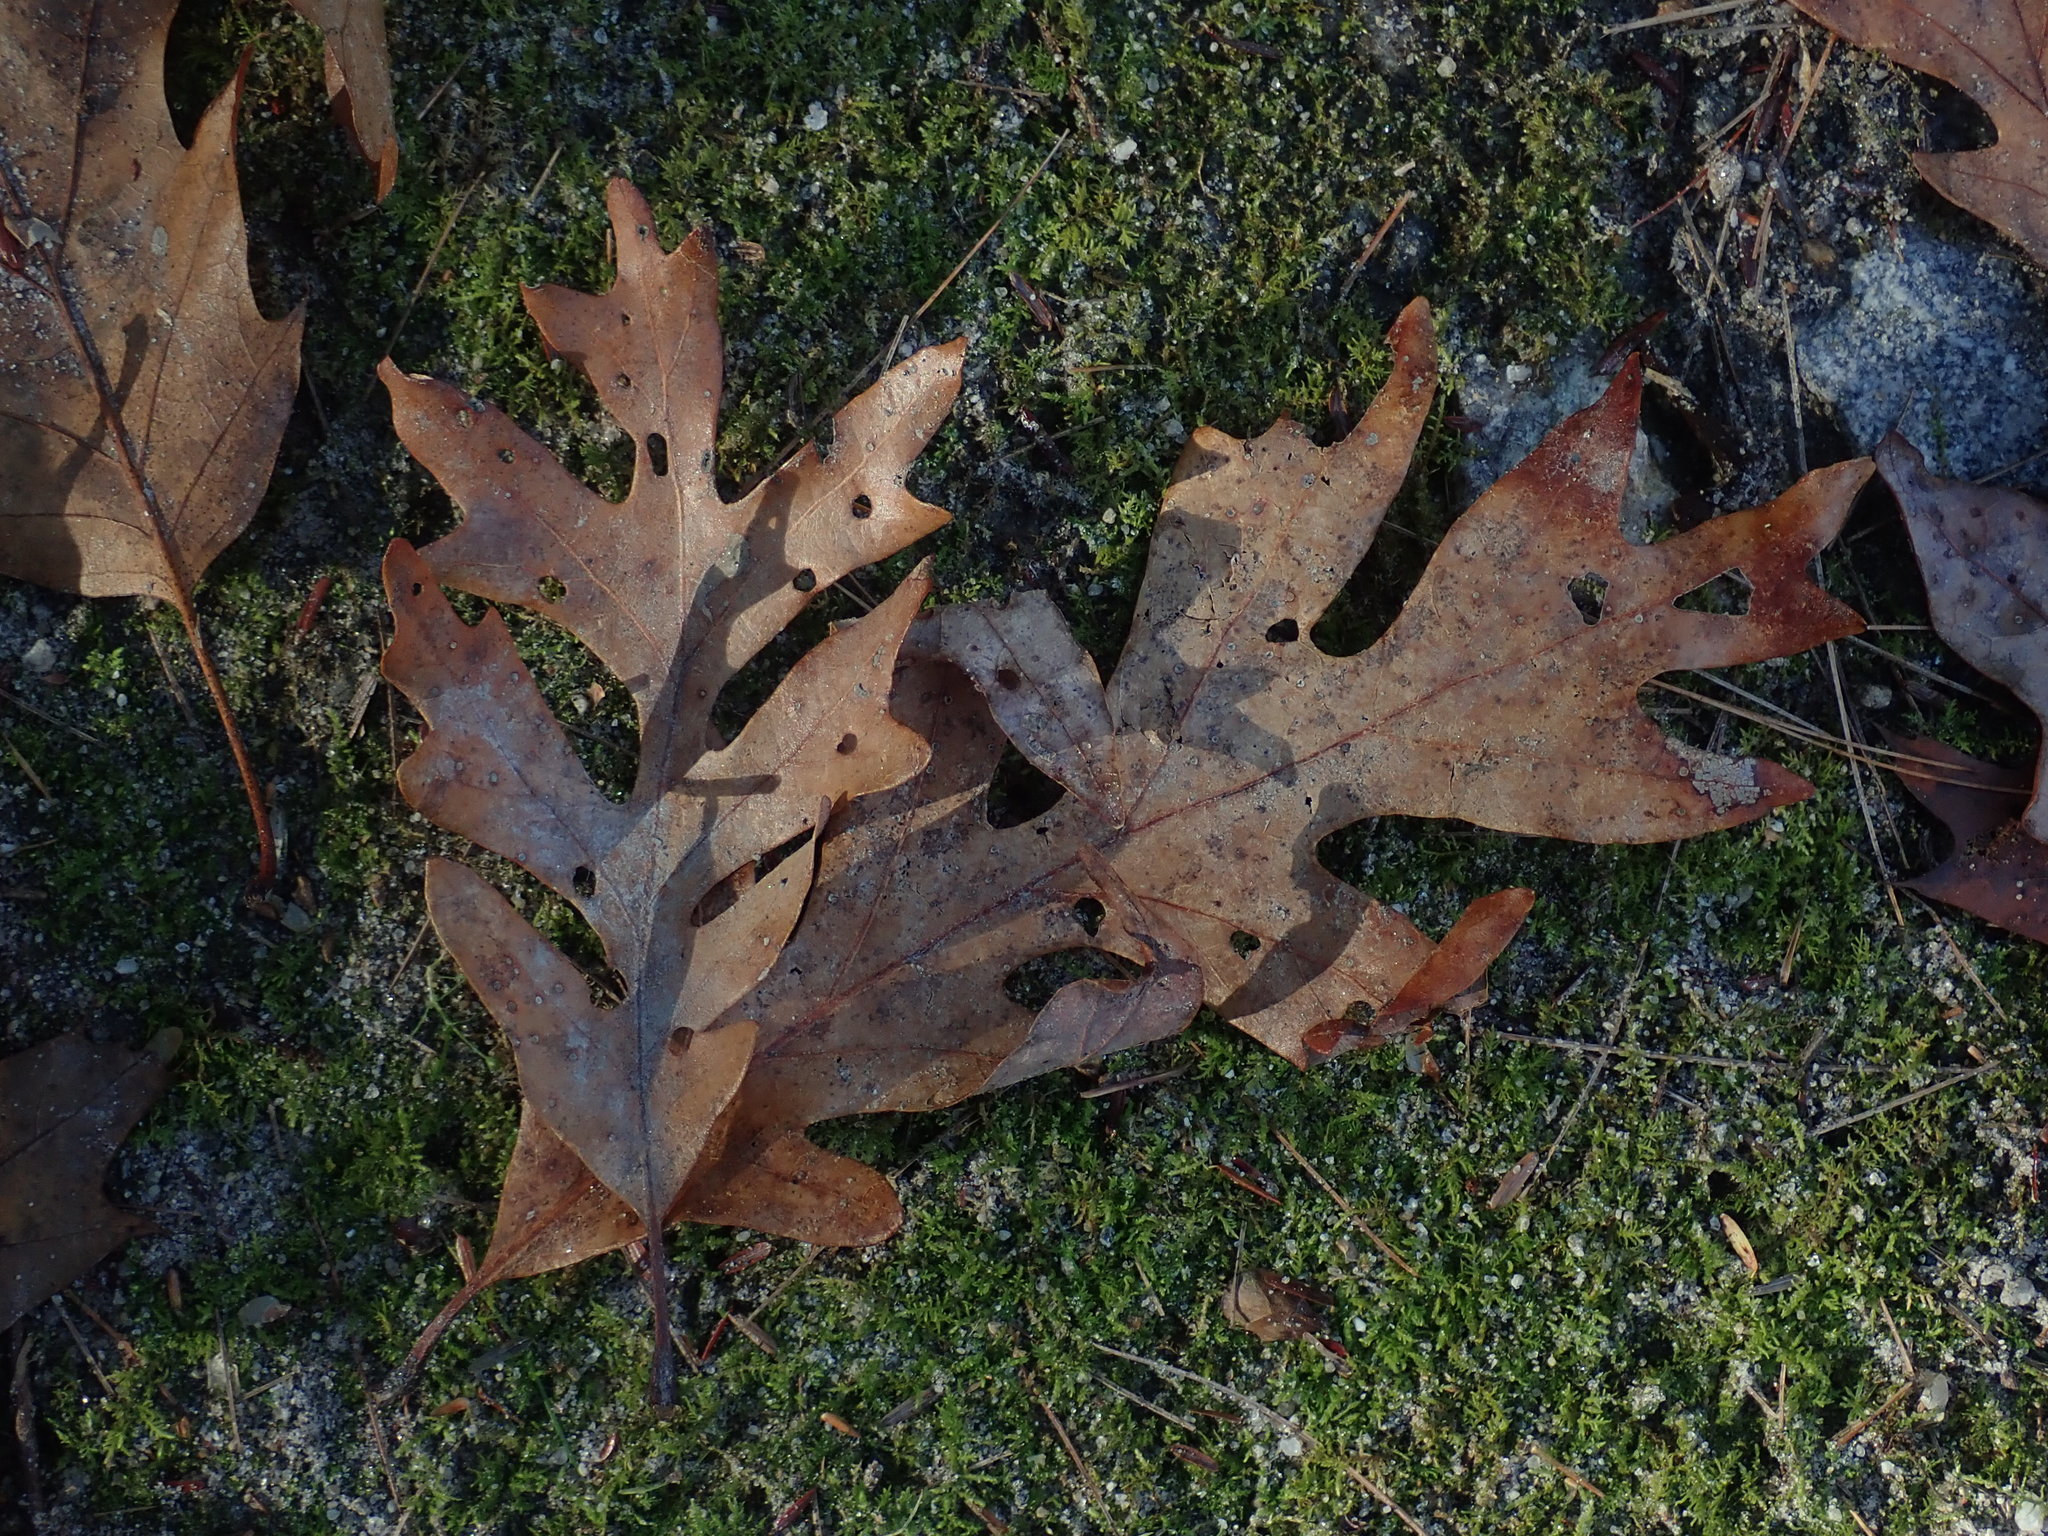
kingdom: Plantae
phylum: Tracheophyta
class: Magnoliopsida
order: Fagales
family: Fagaceae
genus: Quercus
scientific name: Quercus alba
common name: White oak
